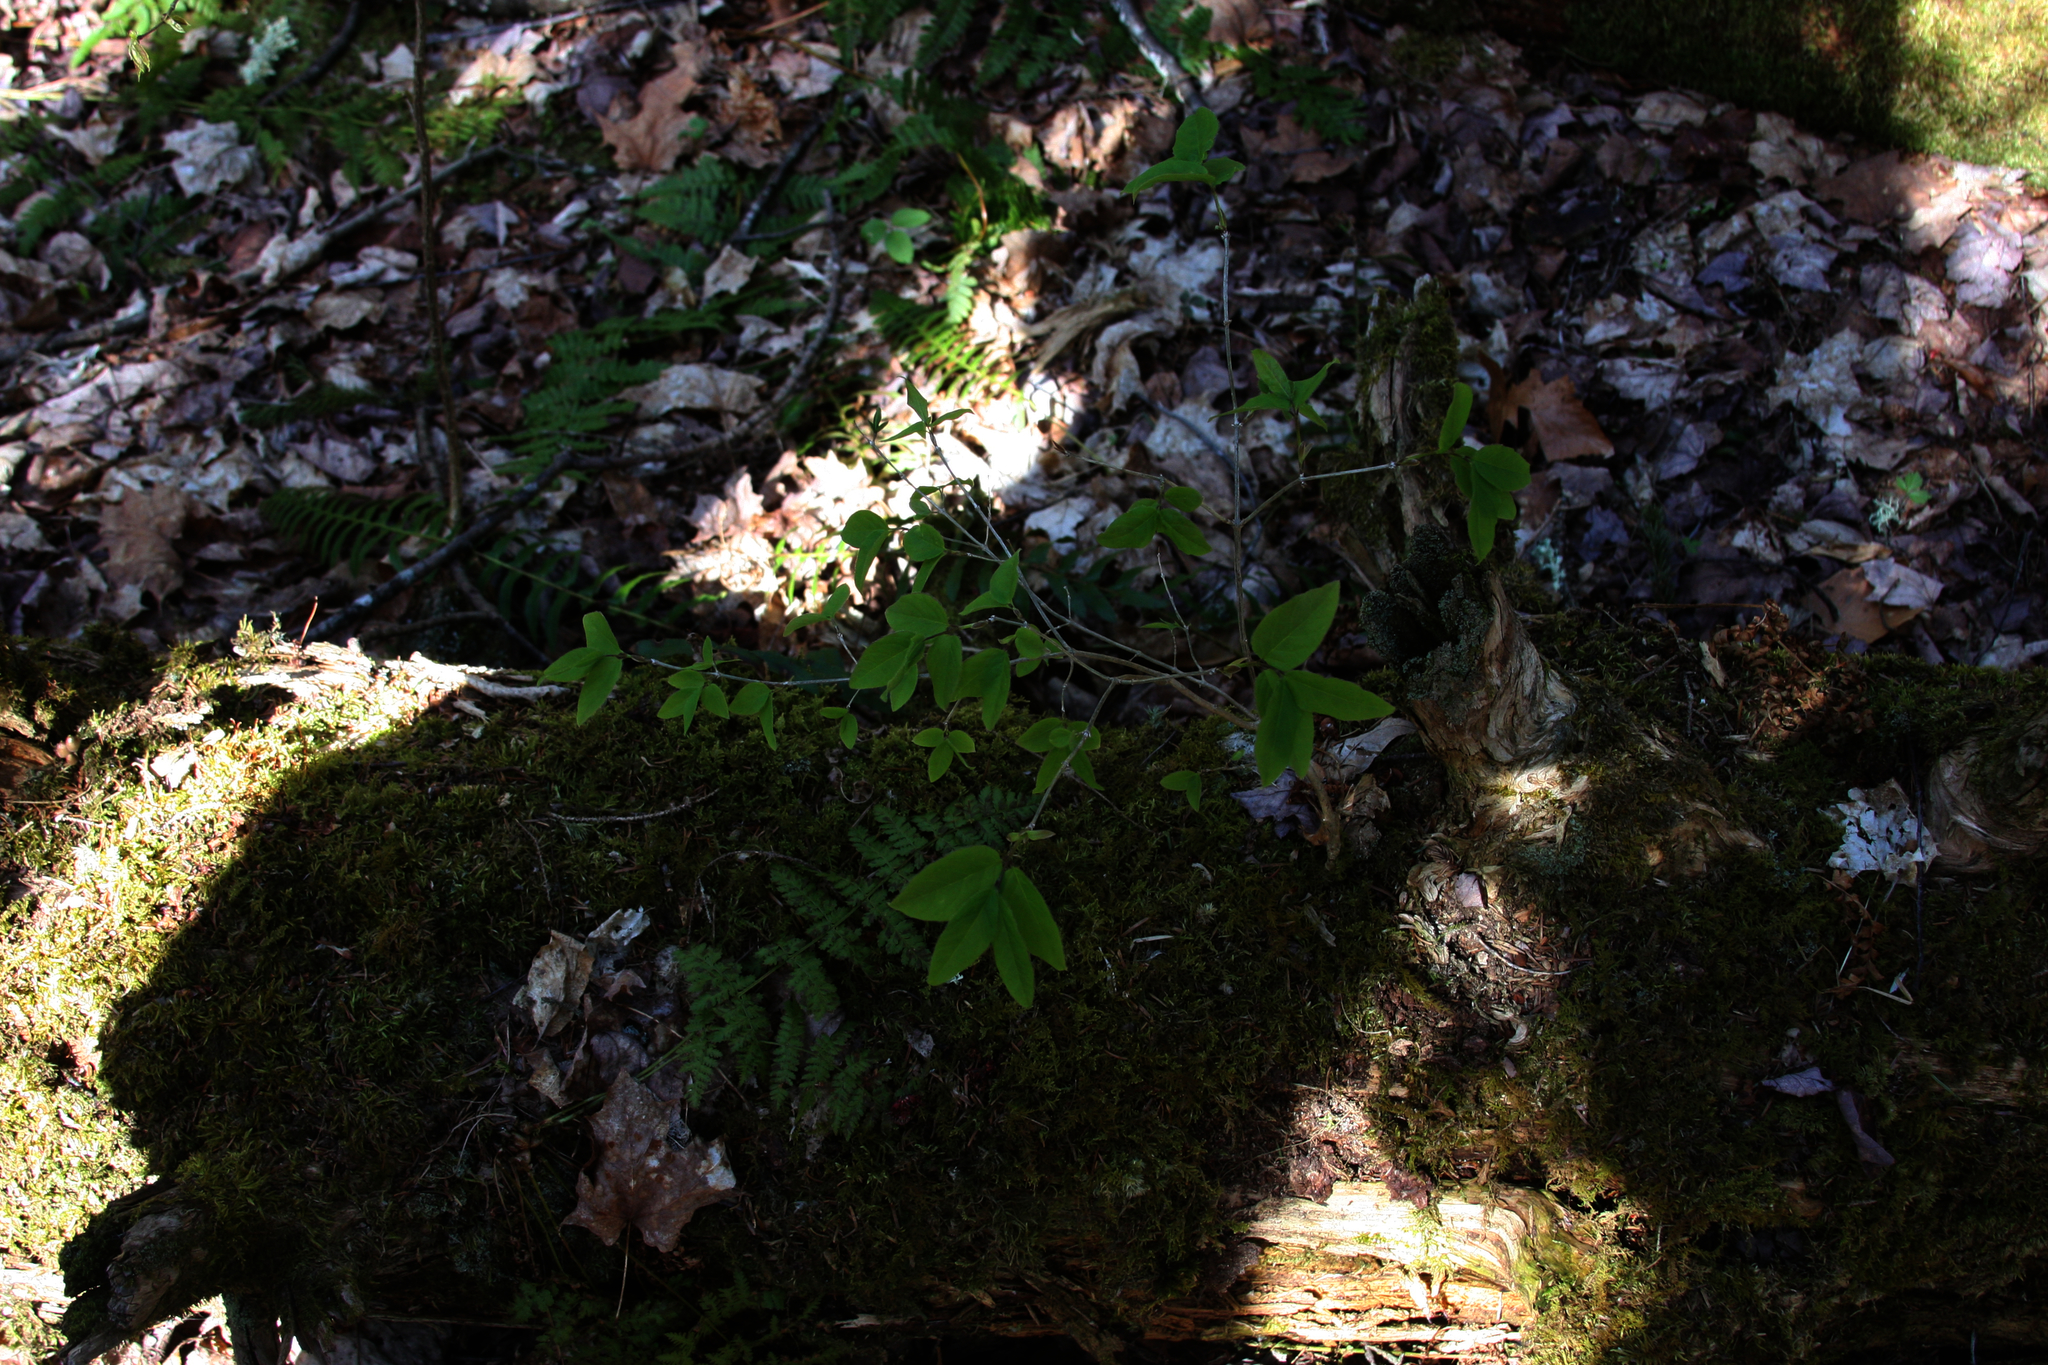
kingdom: Plantae
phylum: Tracheophyta
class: Magnoliopsida
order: Dipsacales
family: Caprifoliaceae
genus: Lonicera
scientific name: Lonicera canadensis
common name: American fly-honeysuckle
